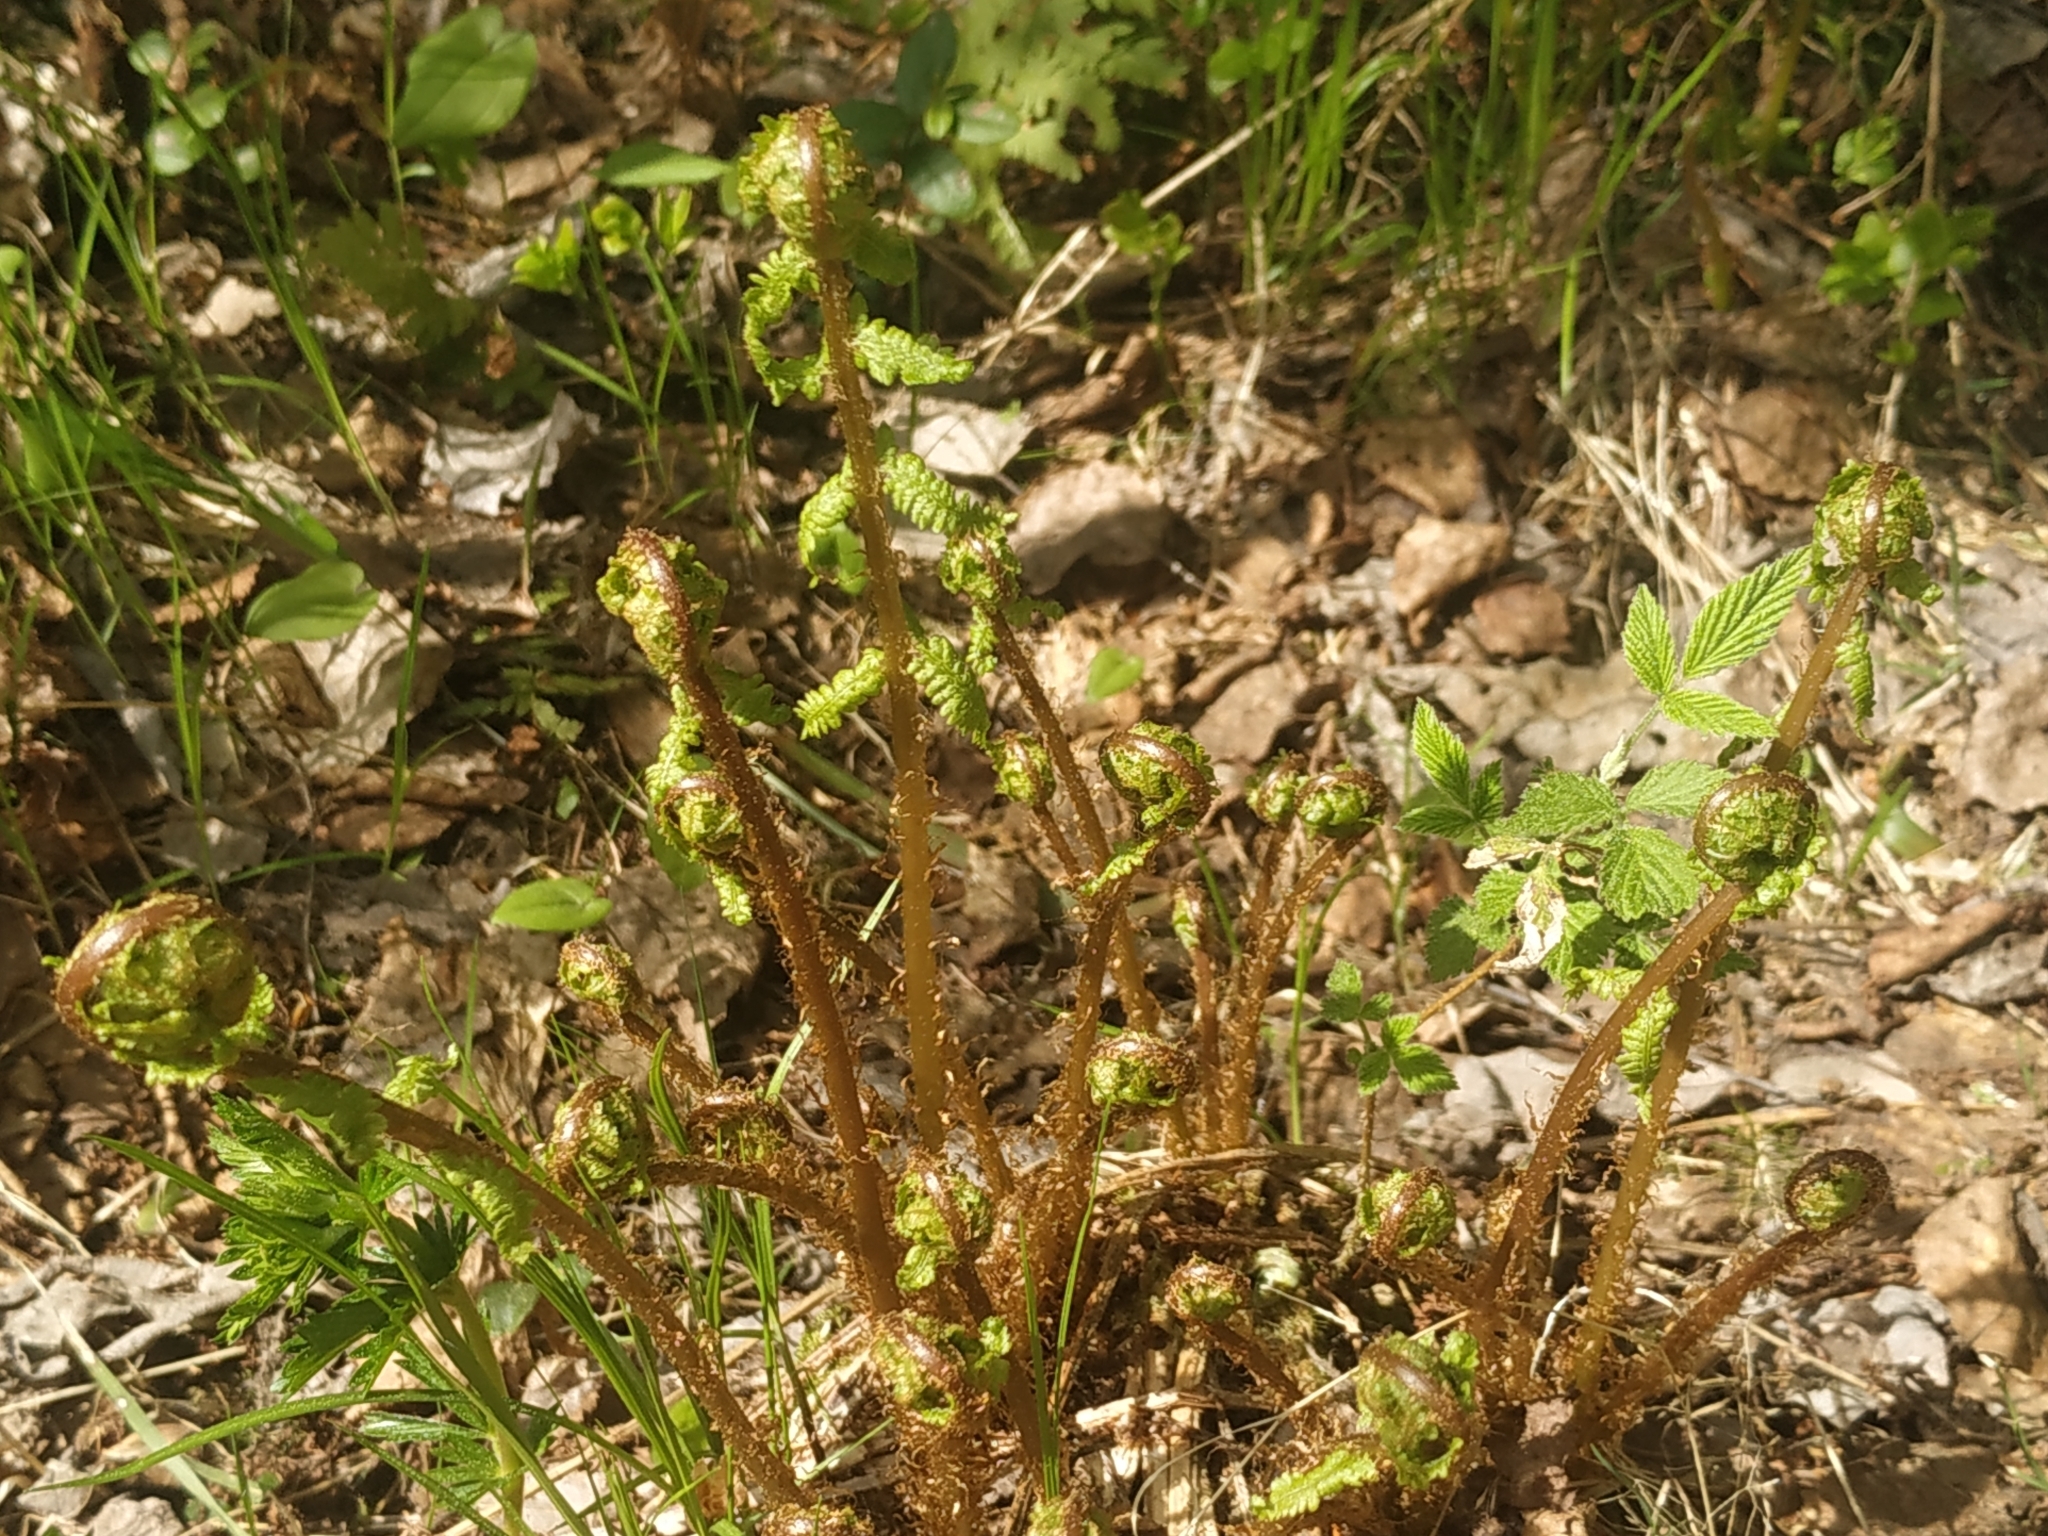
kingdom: Plantae
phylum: Tracheophyta
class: Polypodiopsida
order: Polypodiales
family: Athyriaceae
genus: Athyrium
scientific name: Athyrium filix-femina
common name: Lady fern
